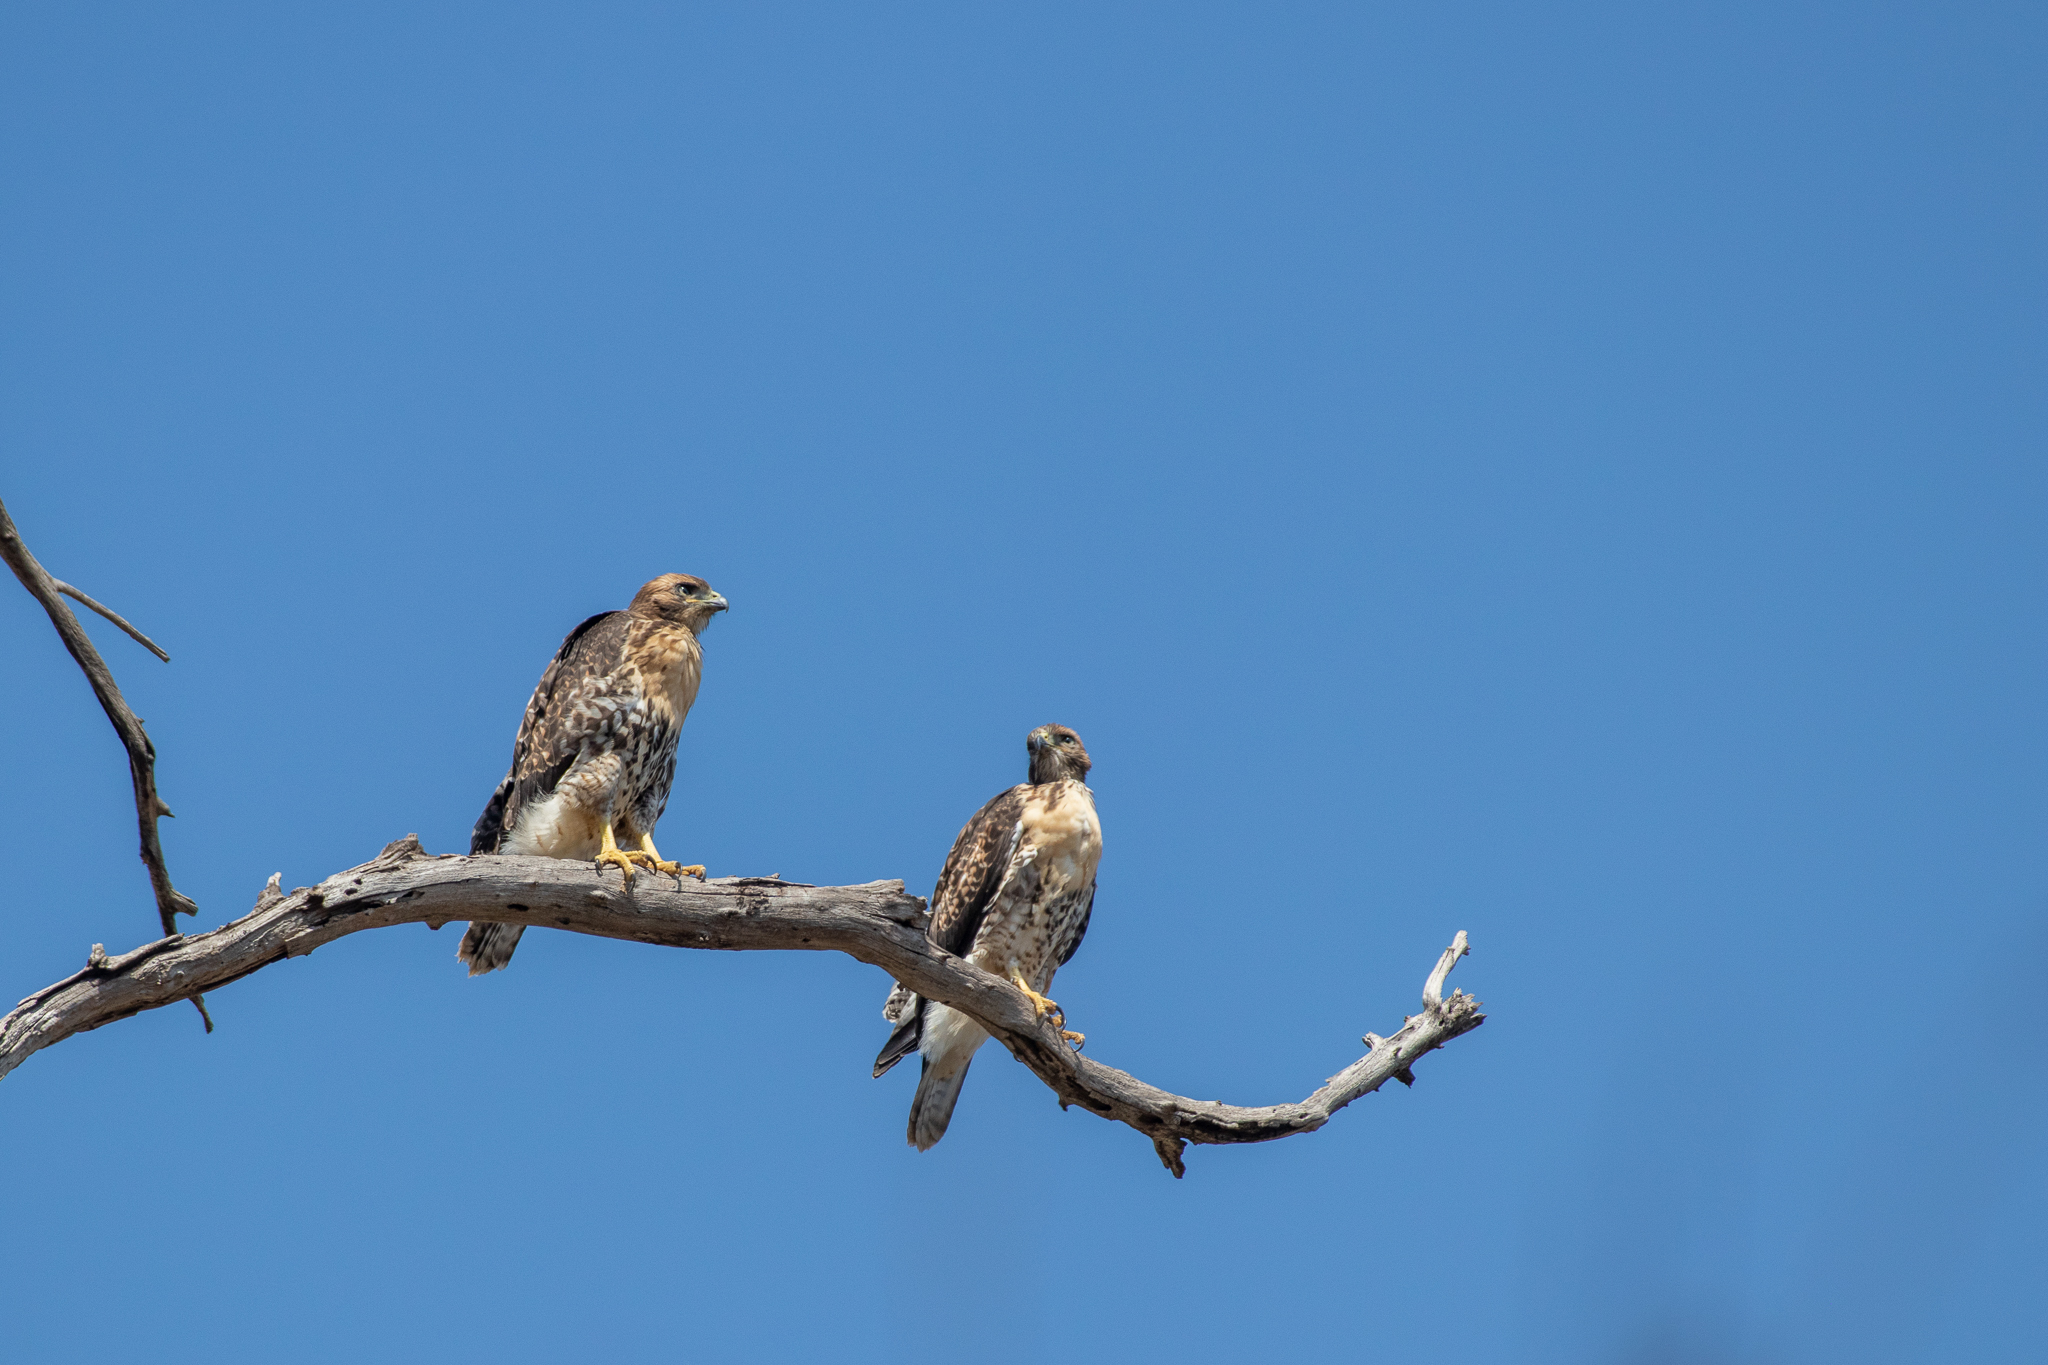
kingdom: Animalia
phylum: Chordata
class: Aves
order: Accipitriformes
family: Accipitridae
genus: Buteo
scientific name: Buteo jamaicensis
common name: Red-tailed hawk
